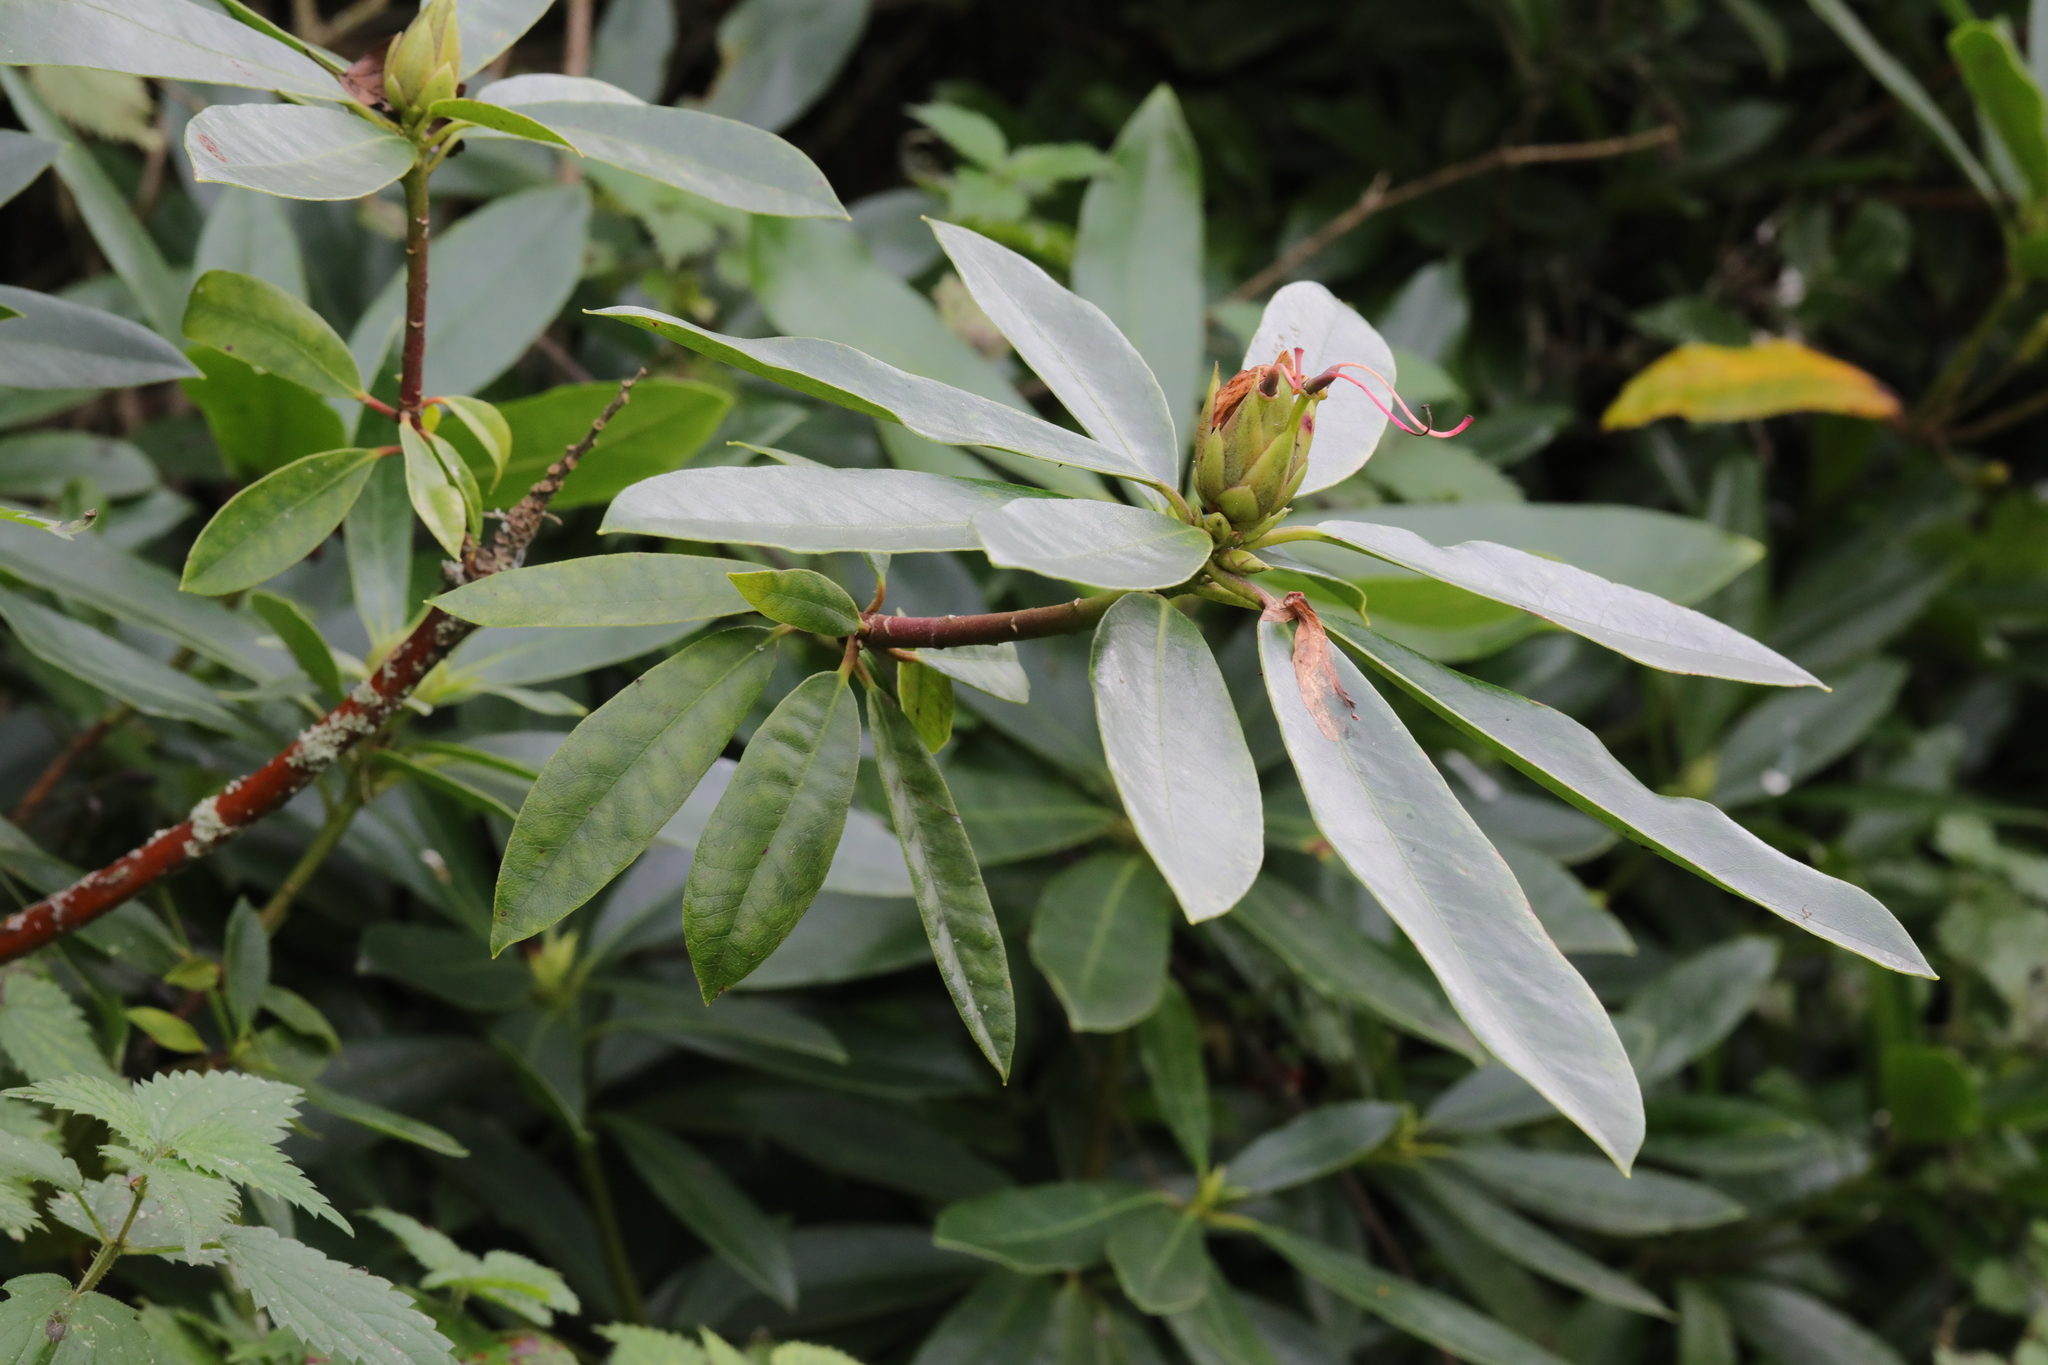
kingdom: Plantae
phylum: Tracheophyta
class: Magnoliopsida
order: Ericales
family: Ericaceae
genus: Rhododendron
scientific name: Rhododendron ponticum
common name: Rhododendron
